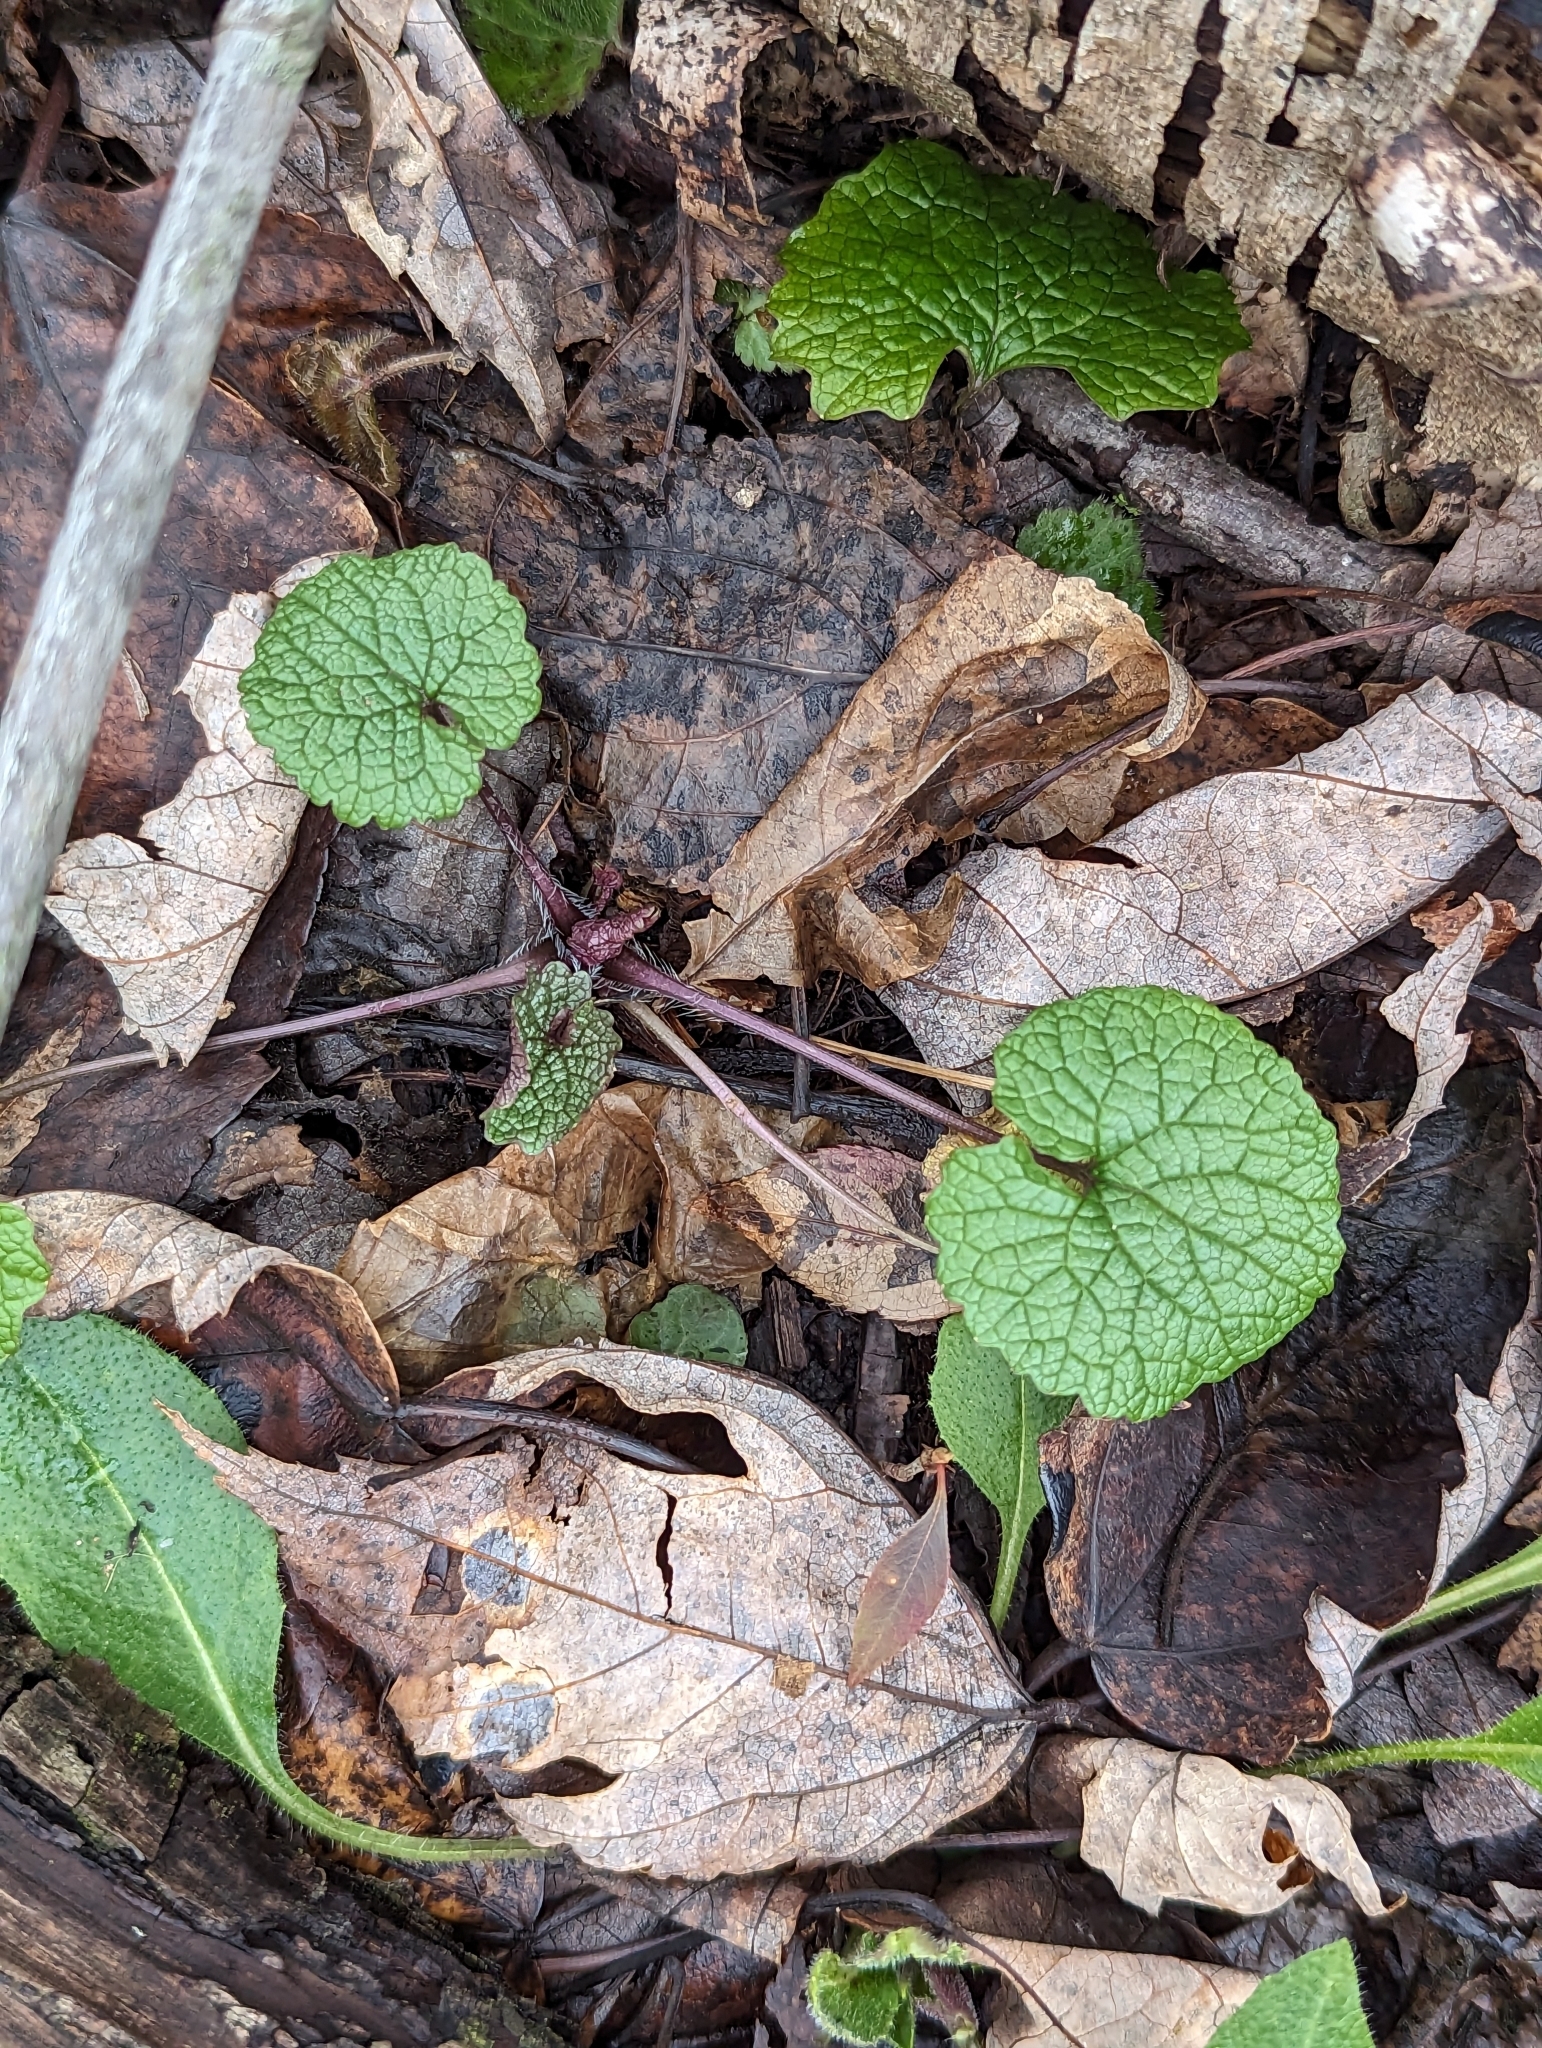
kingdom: Plantae
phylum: Tracheophyta
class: Magnoliopsida
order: Brassicales
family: Brassicaceae
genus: Alliaria
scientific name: Alliaria petiolata
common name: Garlic mustard
